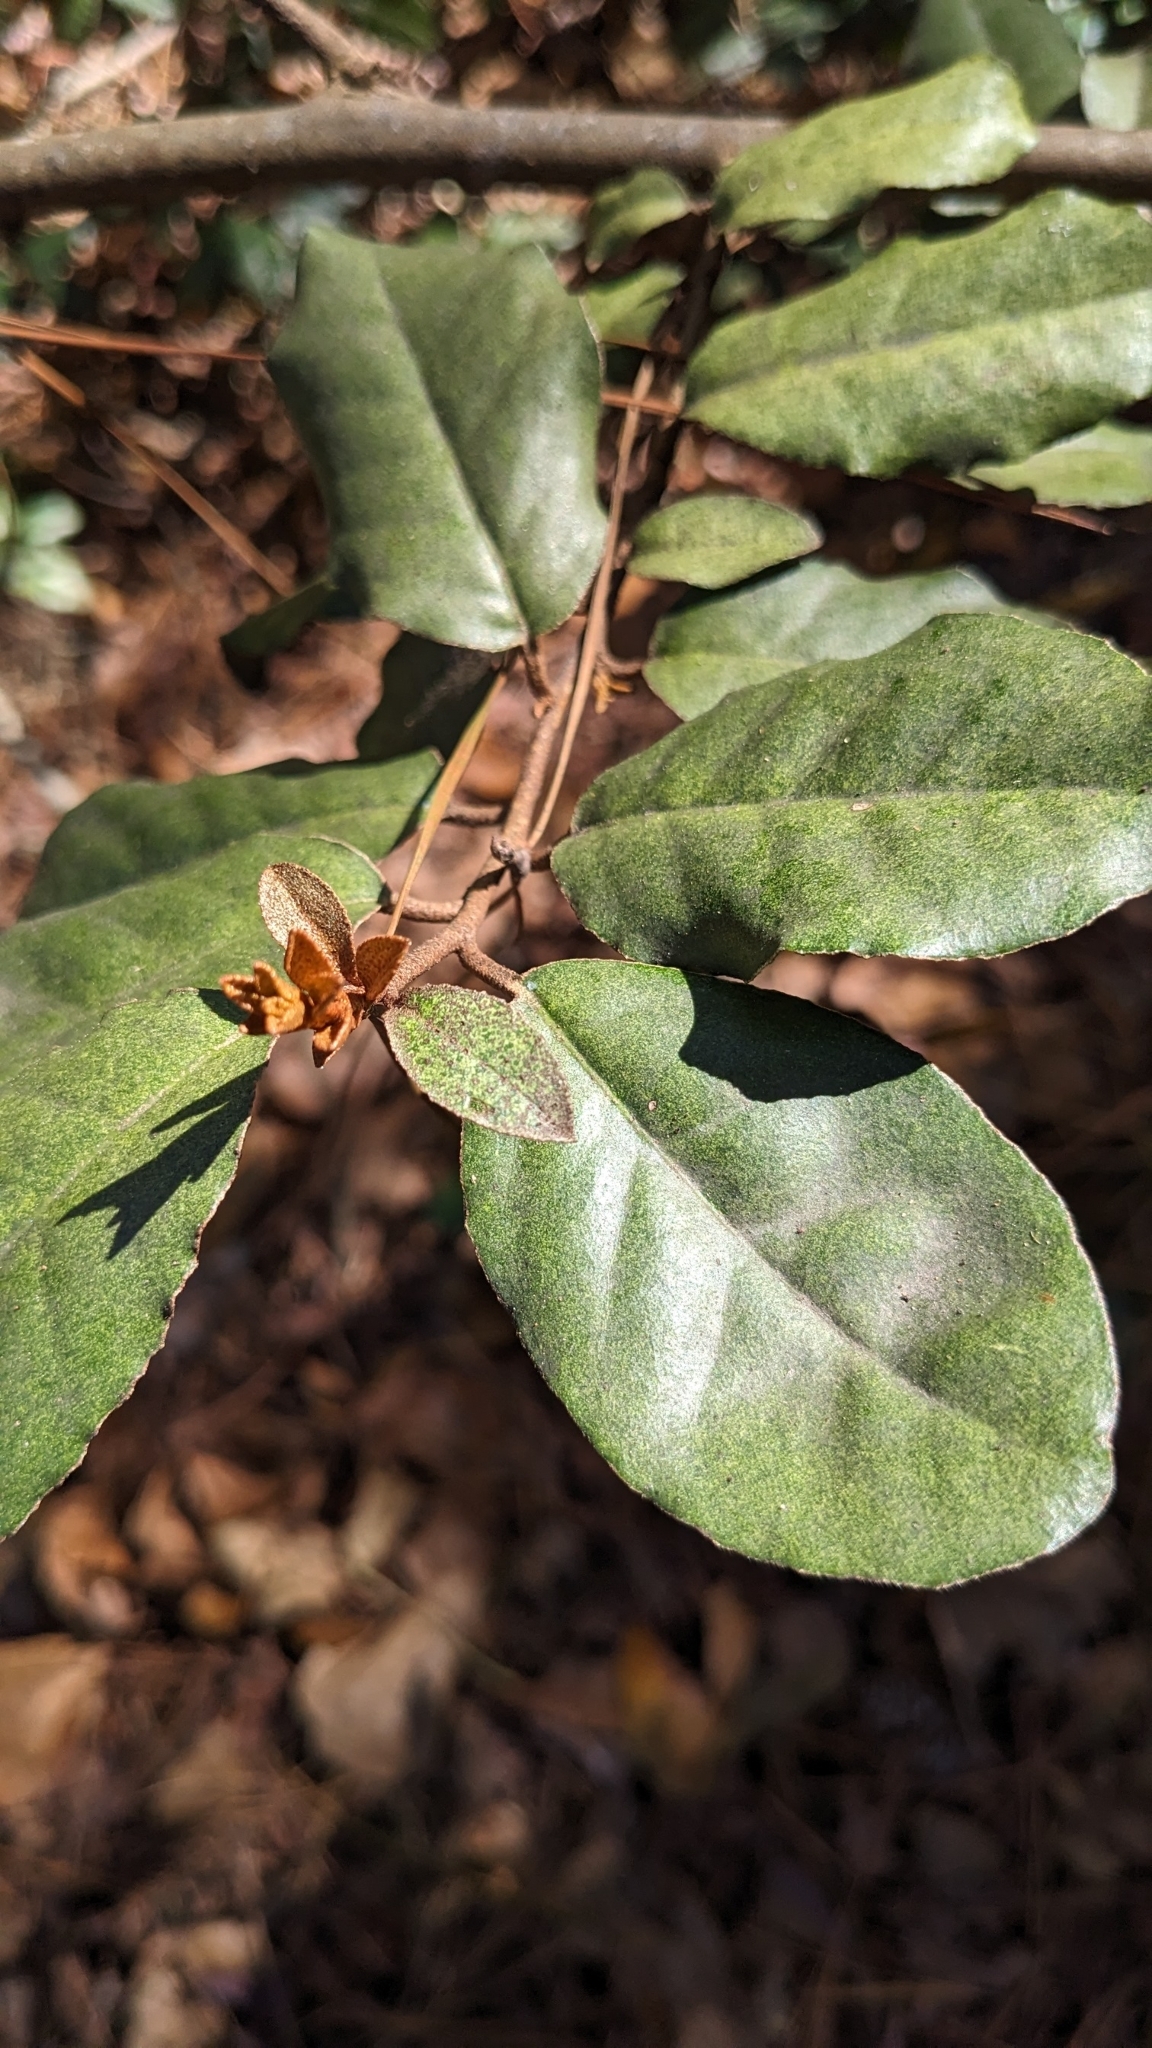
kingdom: Plantae
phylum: Tracheophyta
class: Magnoliopsida
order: Rosales
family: Elaeagnaceae
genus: Elaeagnus
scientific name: Elaeagnus pungens
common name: Spiny oleaster
